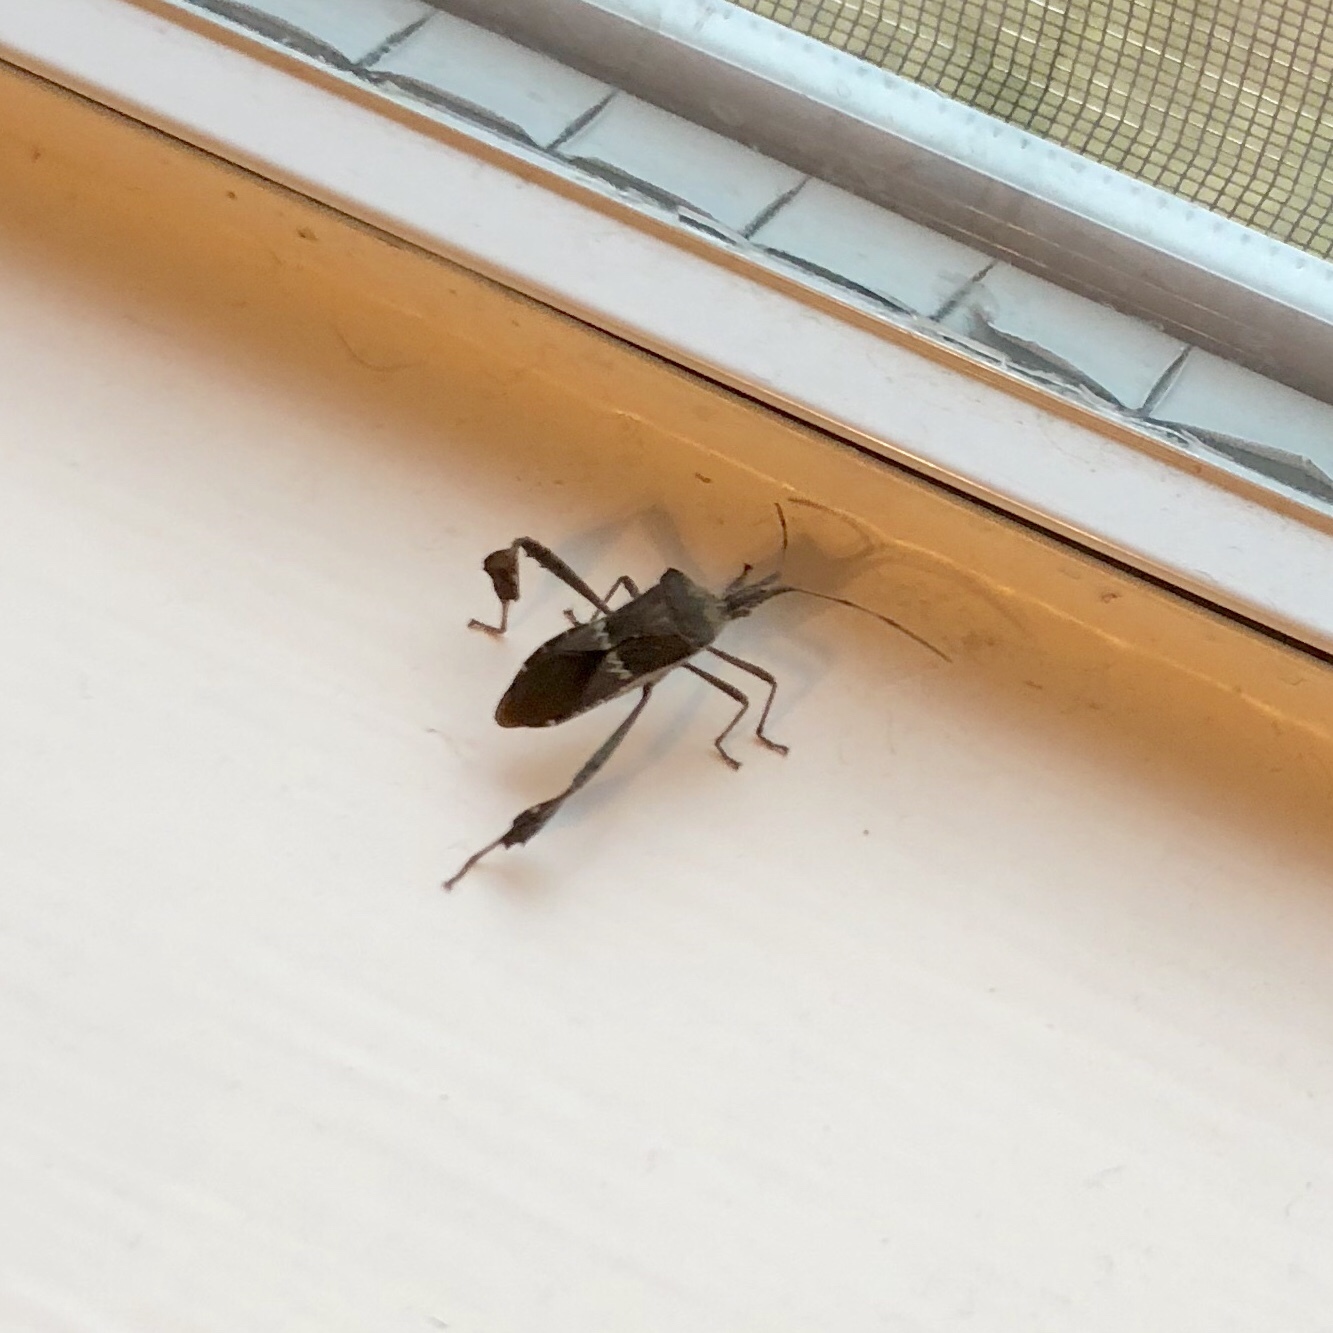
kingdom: Animalia
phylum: Arthropoda
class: Insecta
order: Hemiptera
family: Coreidae
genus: Leptoglossus
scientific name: Leptoglossus zonatus
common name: Large-legged bug
